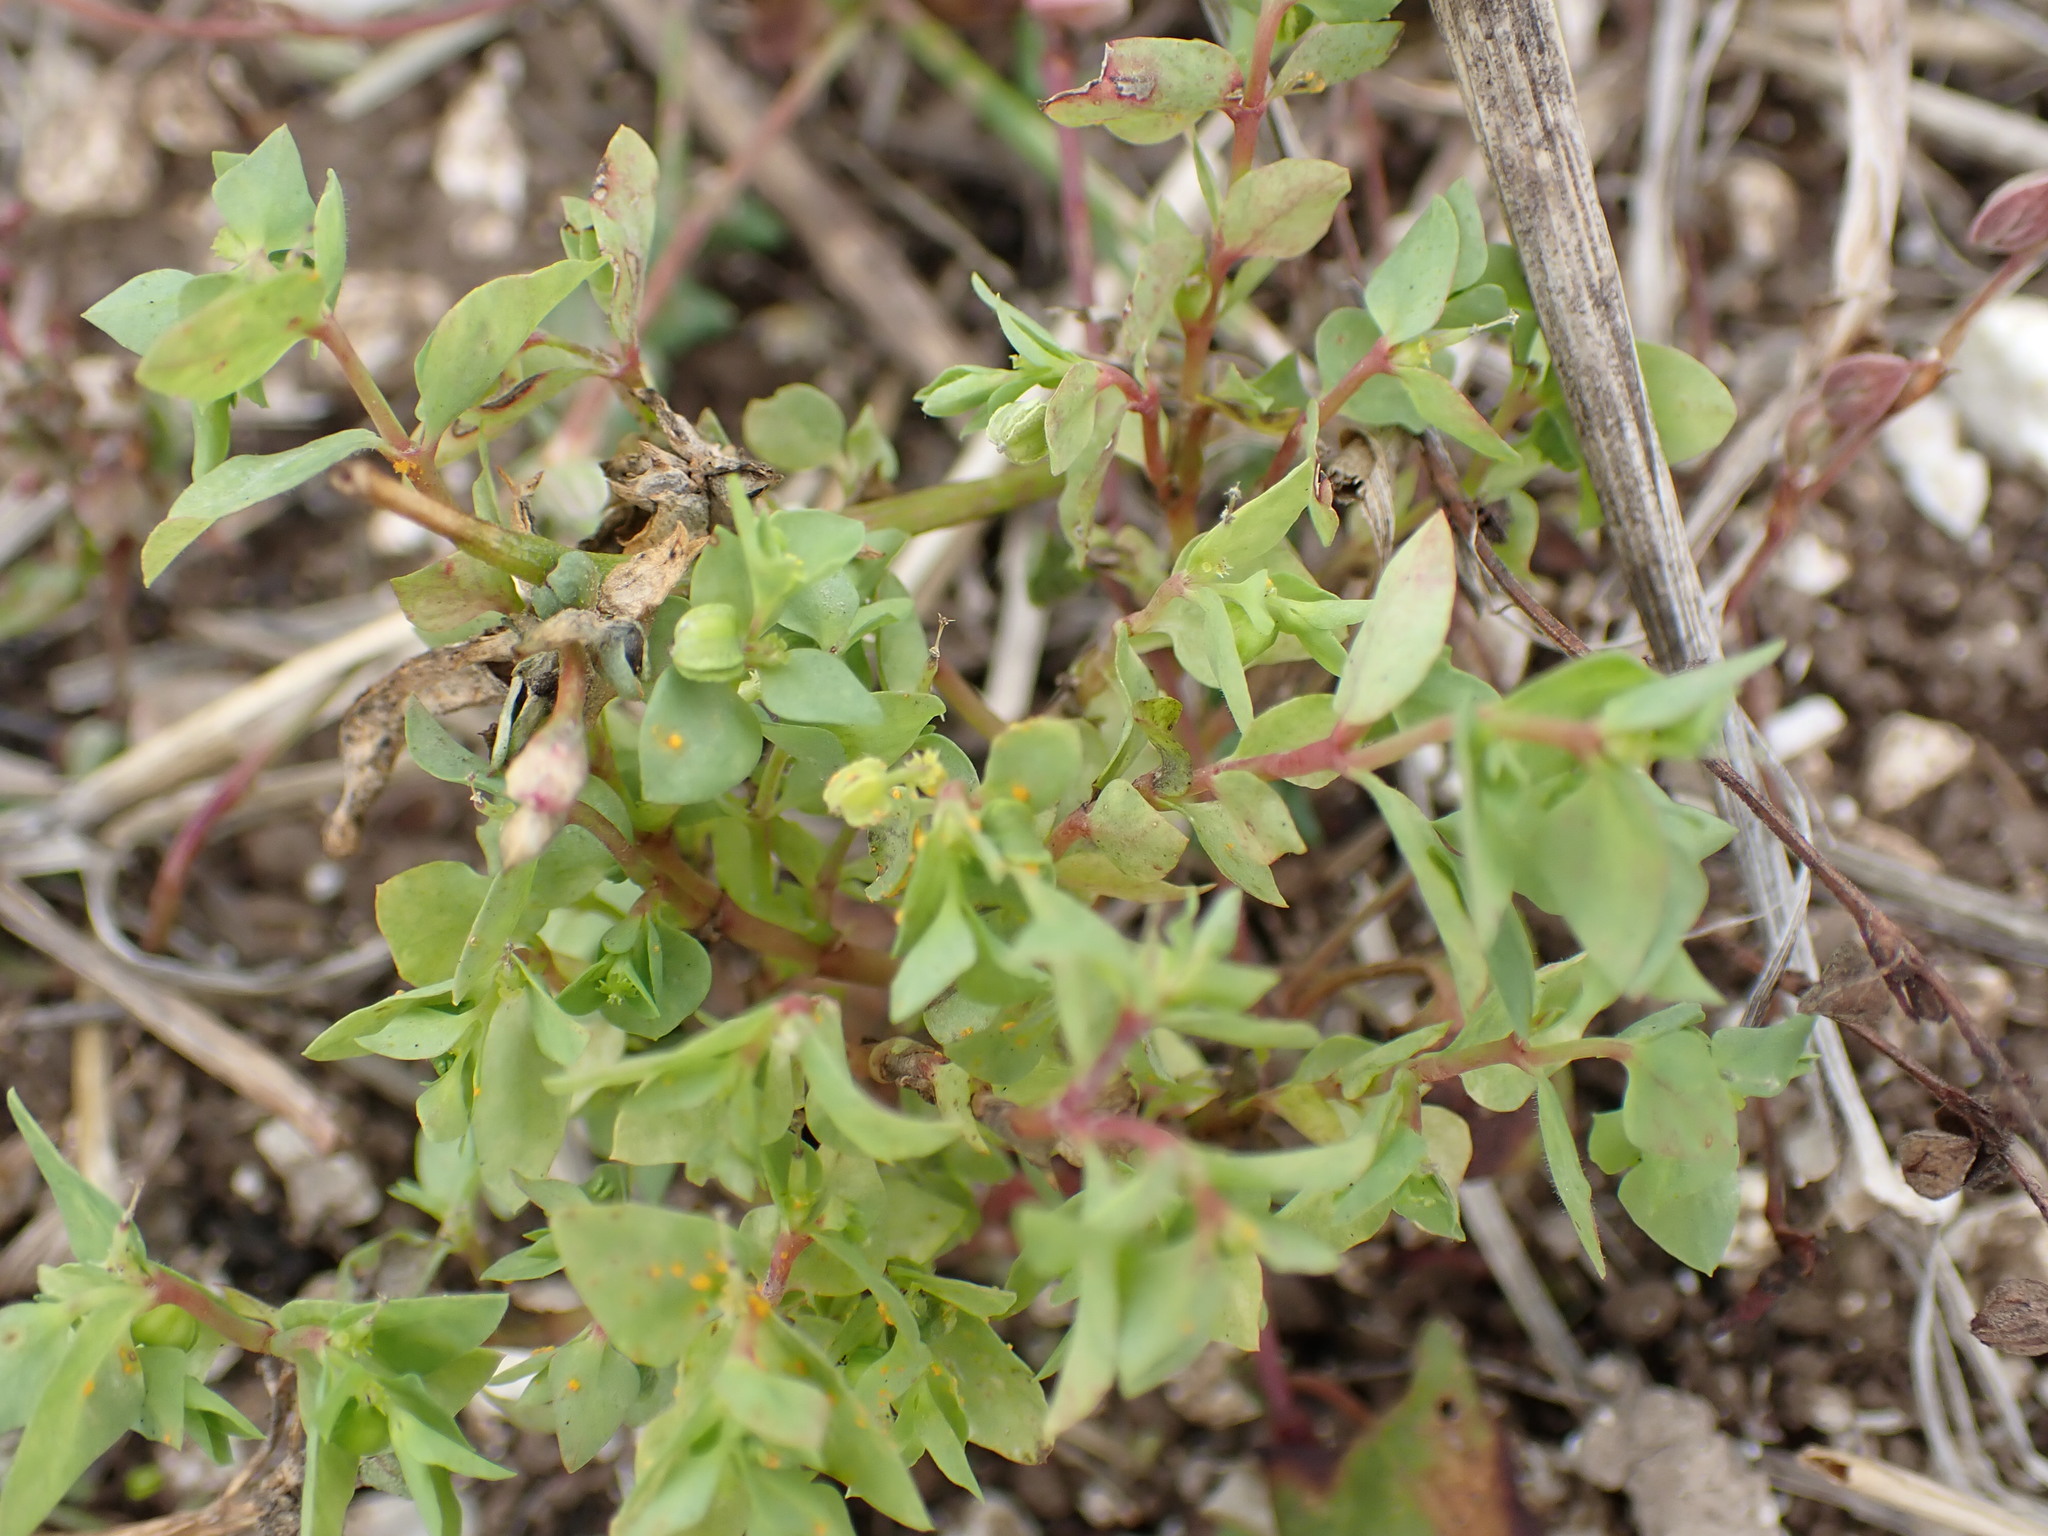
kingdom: Plantae
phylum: Tracheophyta
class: Magnoliopsida
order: Malpighiales
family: Euphorbiaceae
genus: Euphorbia
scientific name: Euphorbia peplus
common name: Petty spurge
